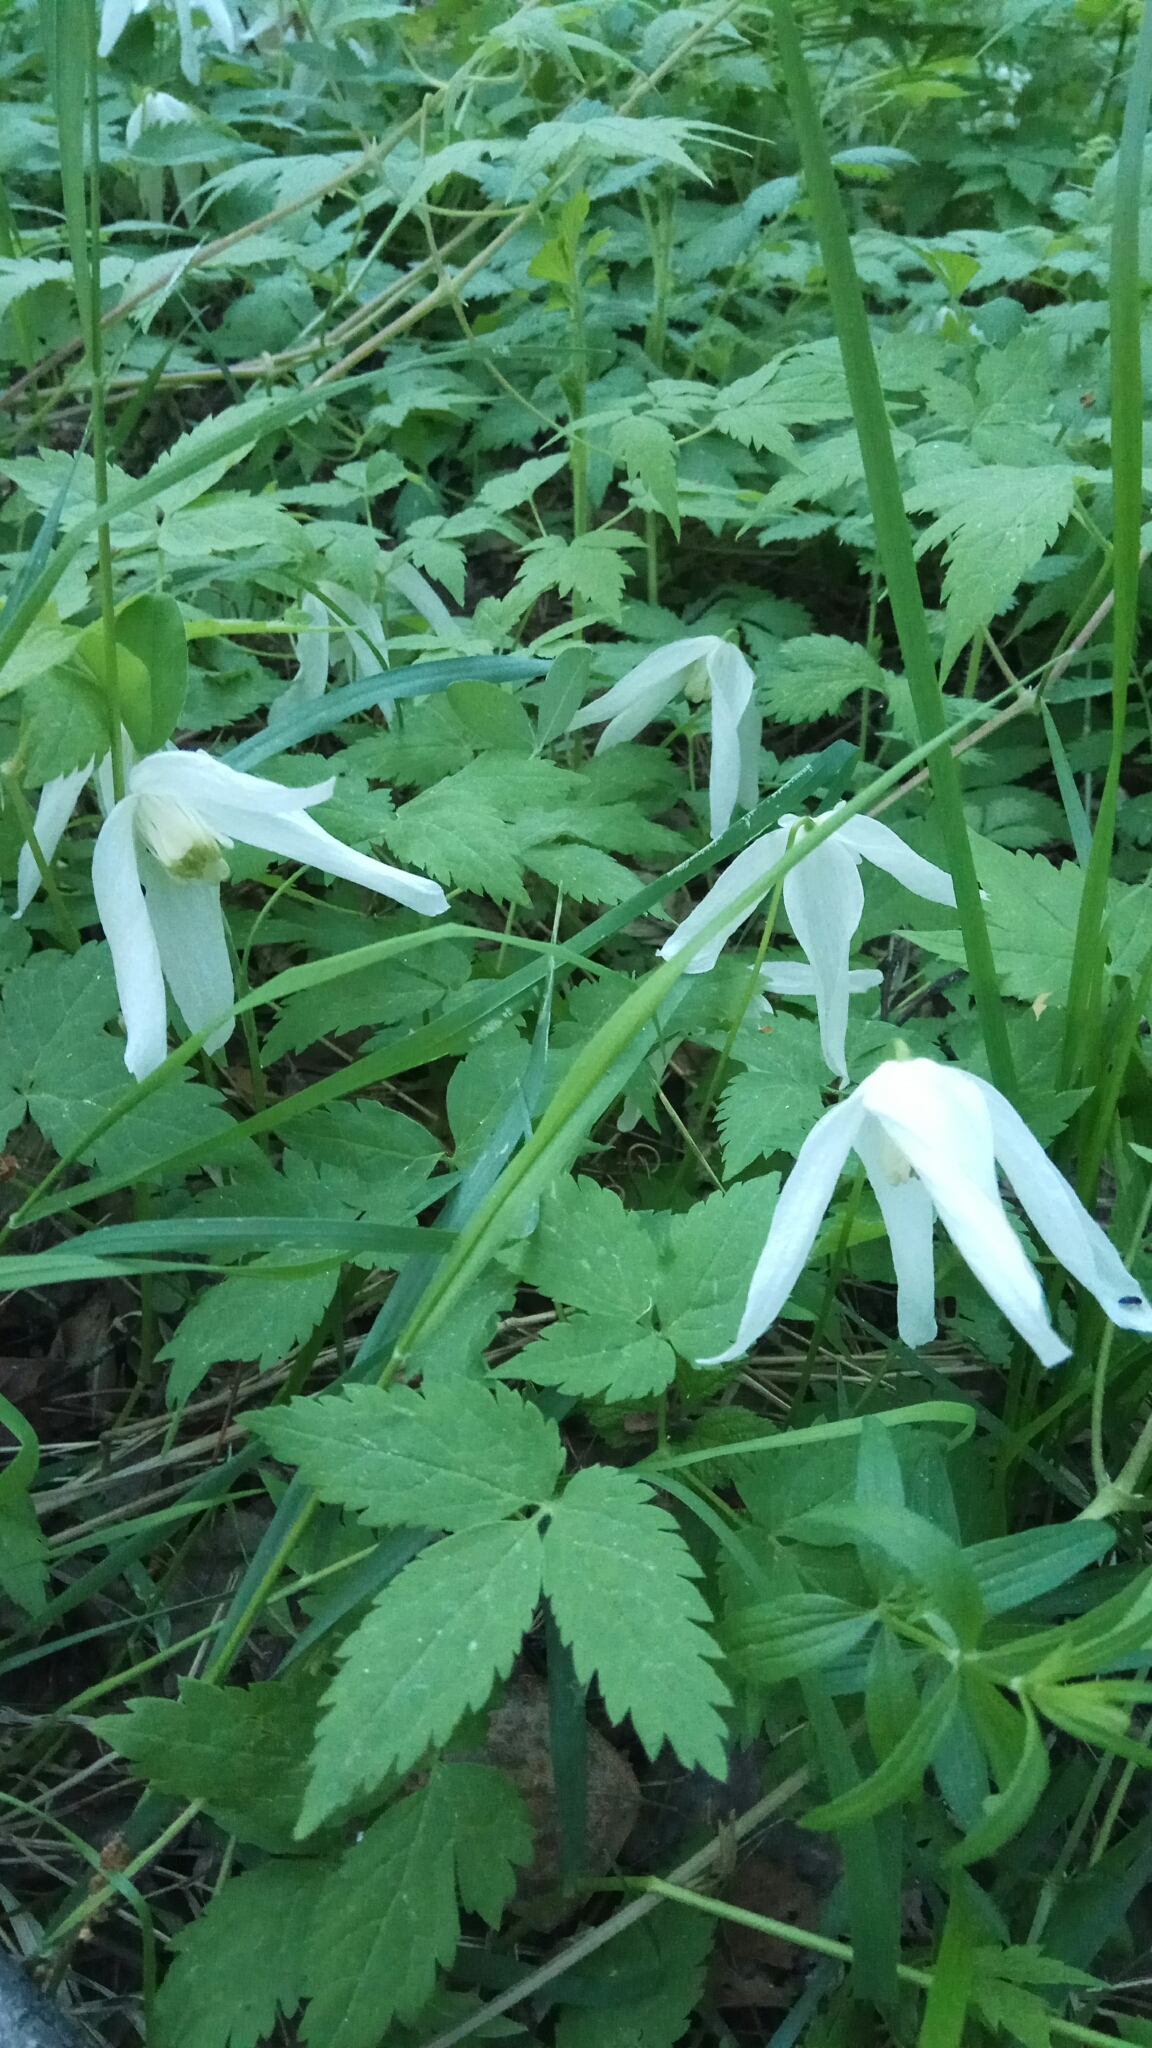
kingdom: Plantae
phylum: Tracheophyta
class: Magnoliopsida
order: Ranunculales
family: Ranunculaceae
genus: Clematis
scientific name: Clematis sibirica
